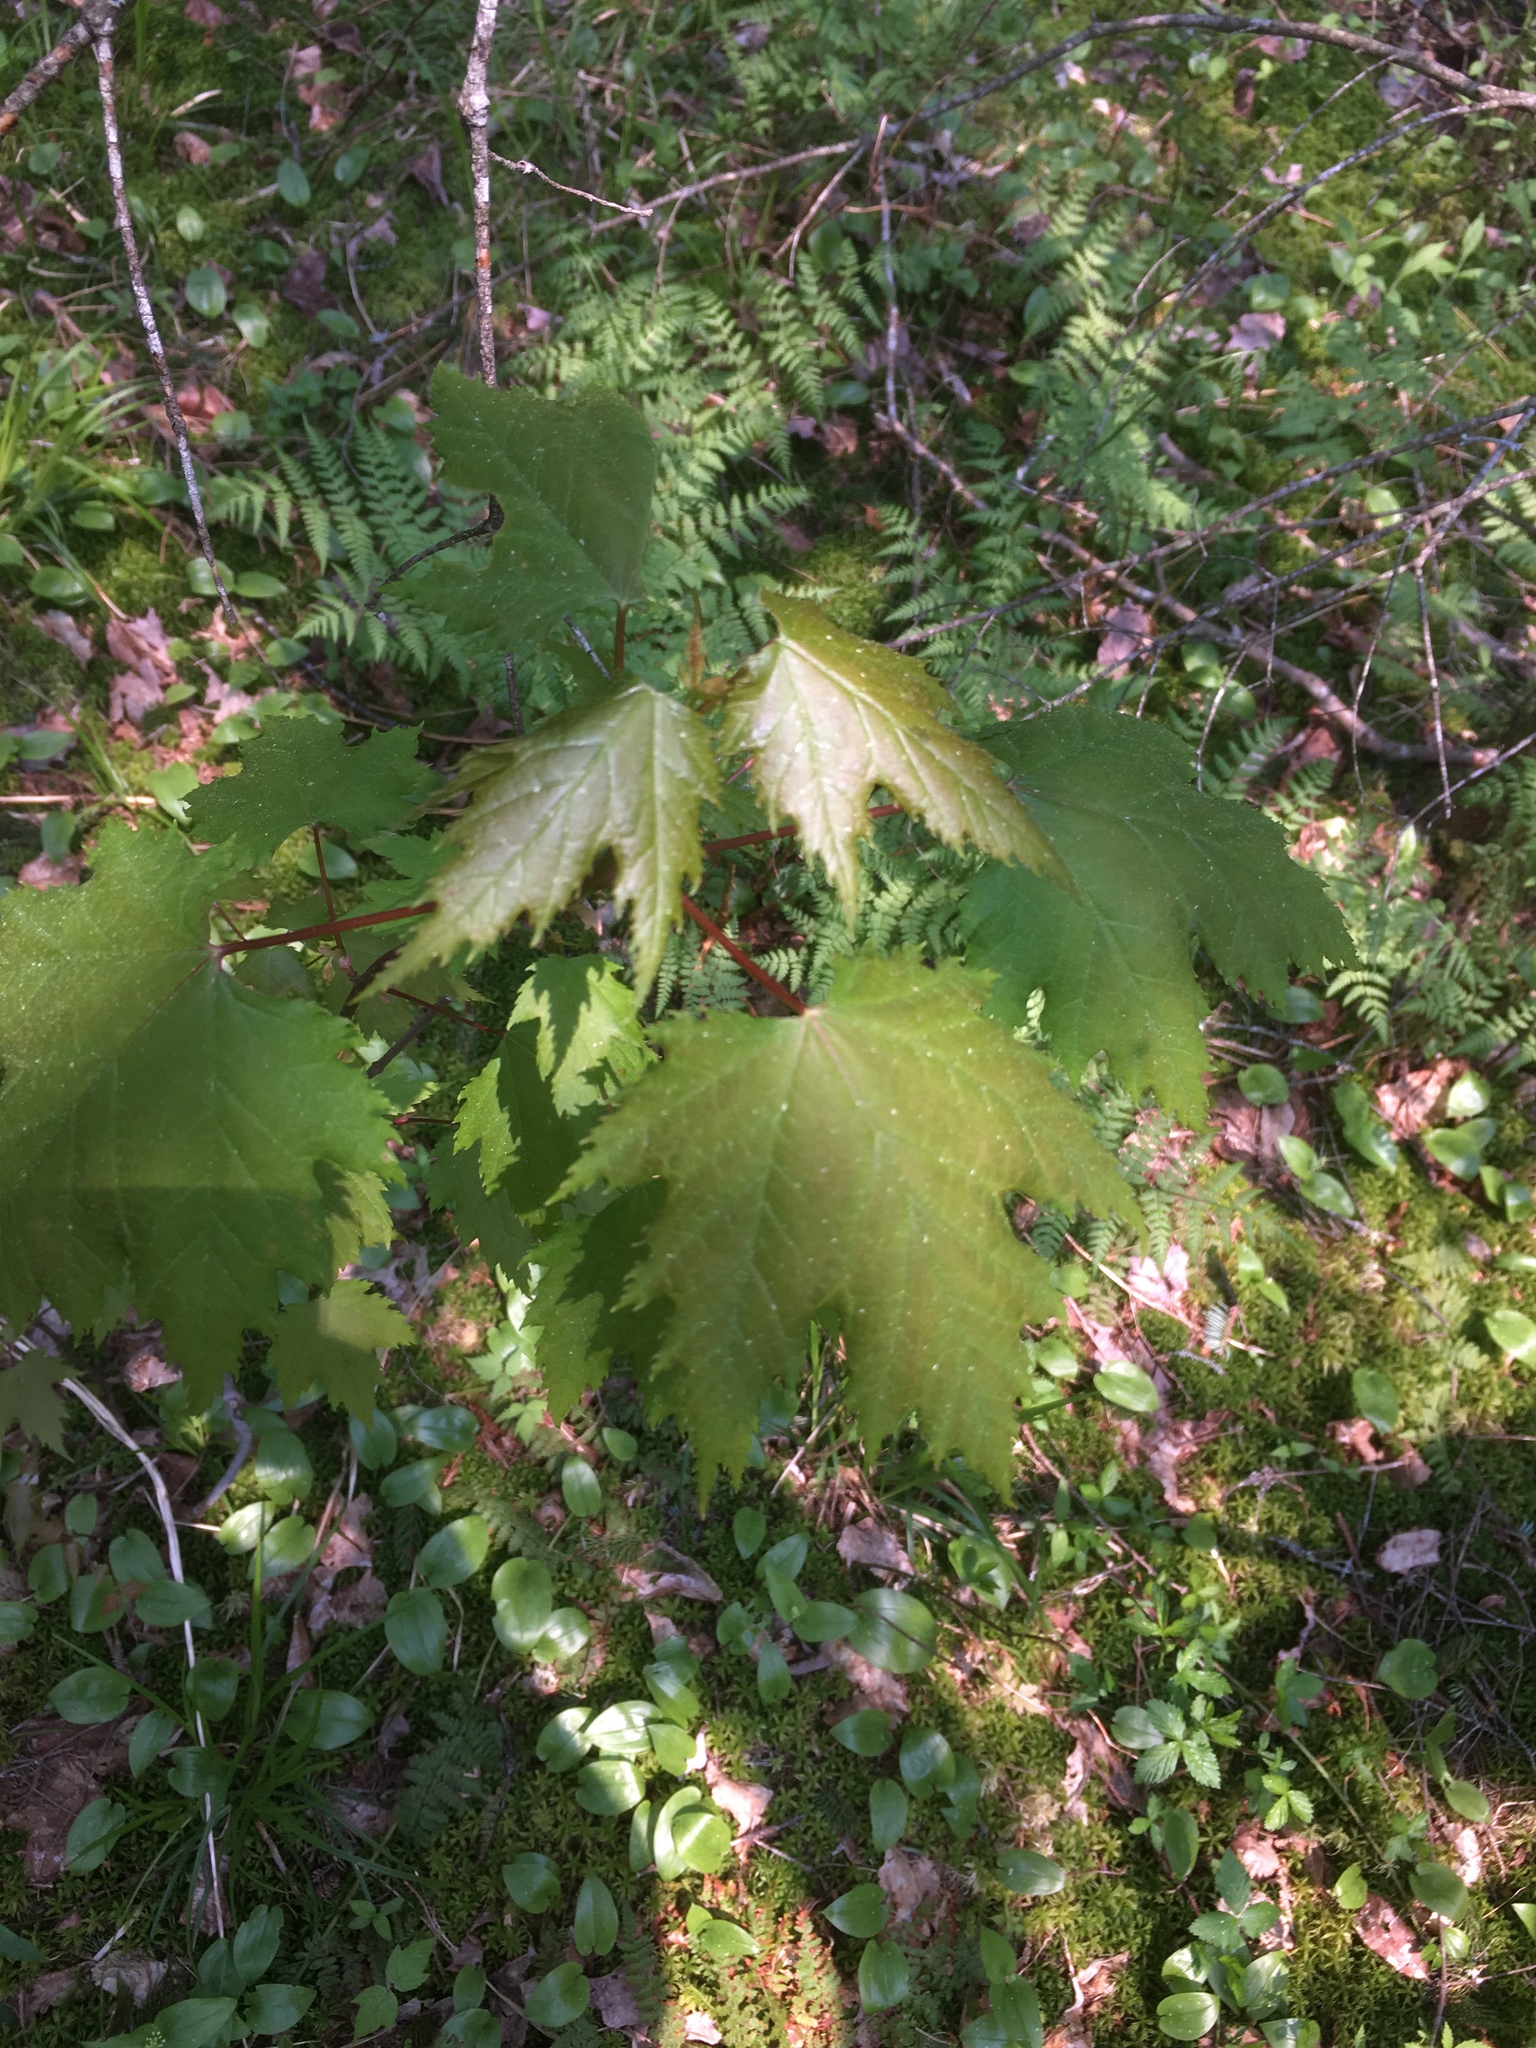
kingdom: Plantae
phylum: Tracheophyta
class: Magnoliopsida
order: Sapindales
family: Sapindaceae
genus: Acer
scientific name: Acer rubrum
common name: Red maple
